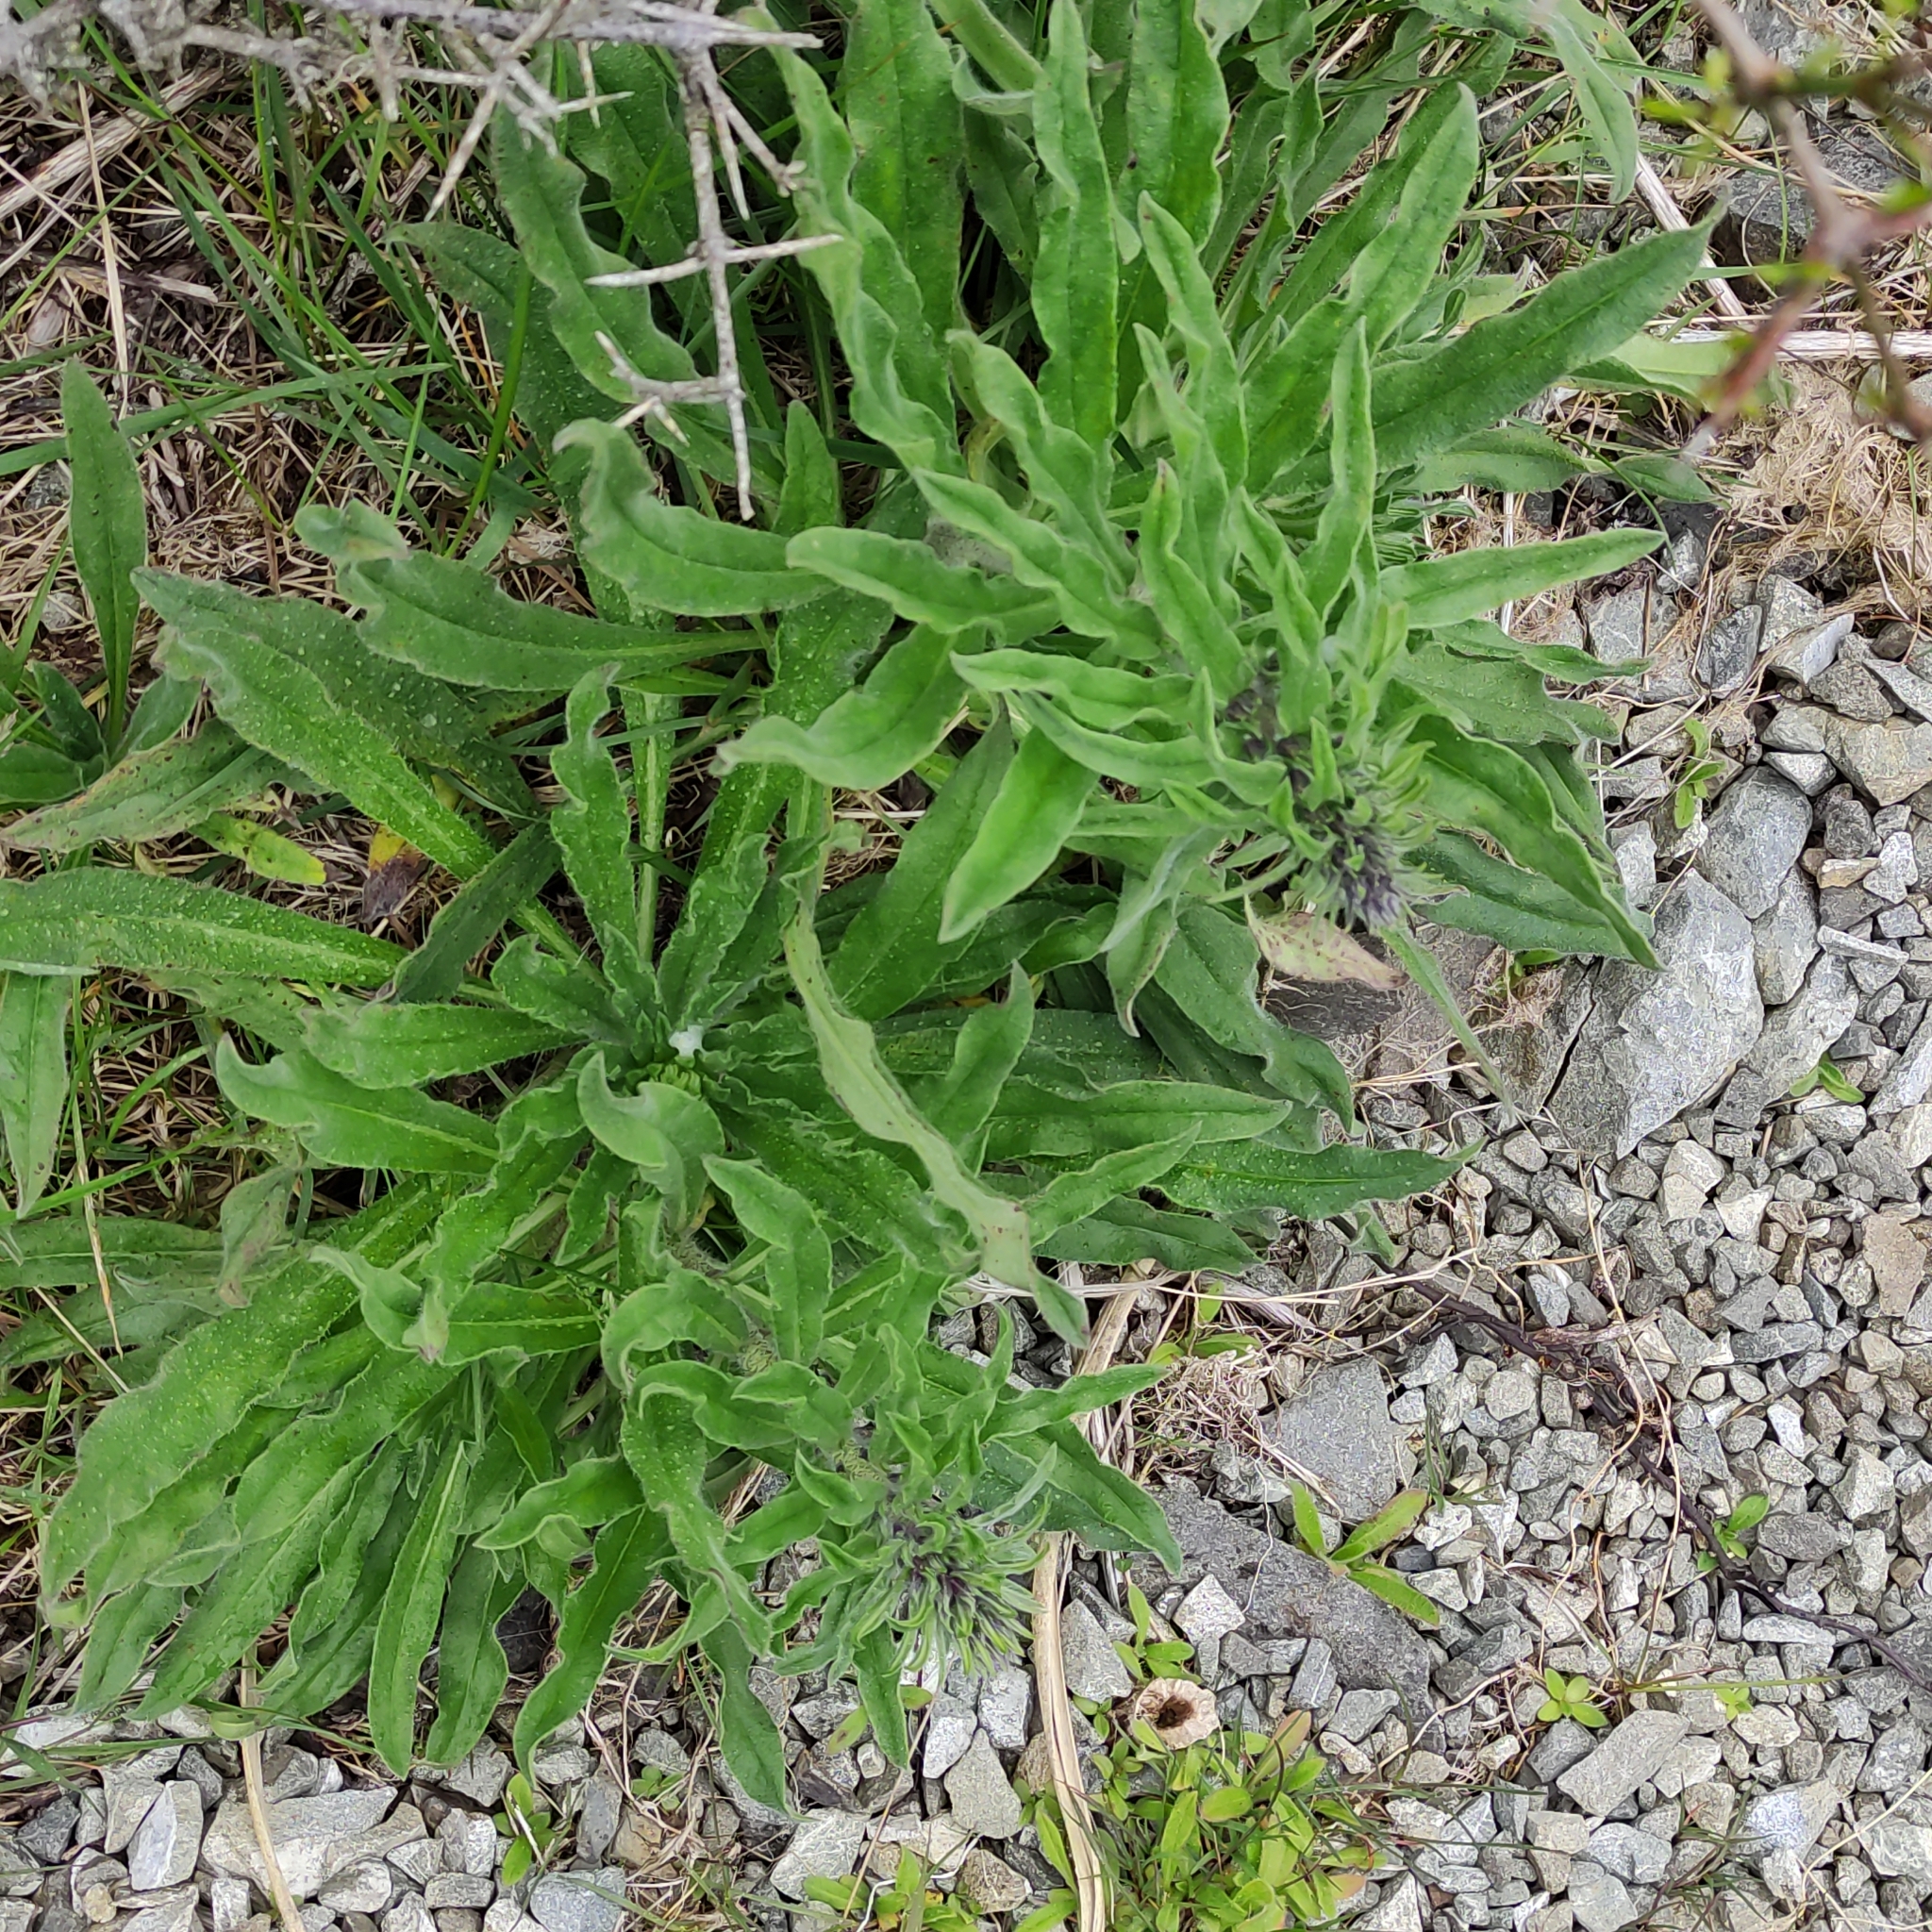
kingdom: Plantae
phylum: Tracheophyta
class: Magnoliopsida
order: Boraginales
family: Boraginaceae
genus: Echium
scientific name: Echium vulgare
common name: Common viper's bugloss
